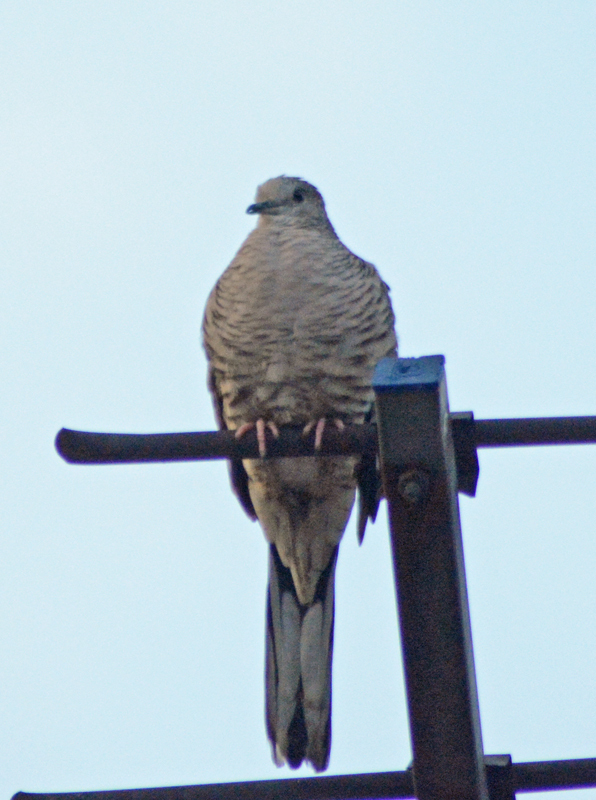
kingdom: Animalia
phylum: Chordata
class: Aves
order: Columbiformes
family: Columbidae
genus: Columbina
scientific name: Columbina inca
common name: Inca dove
